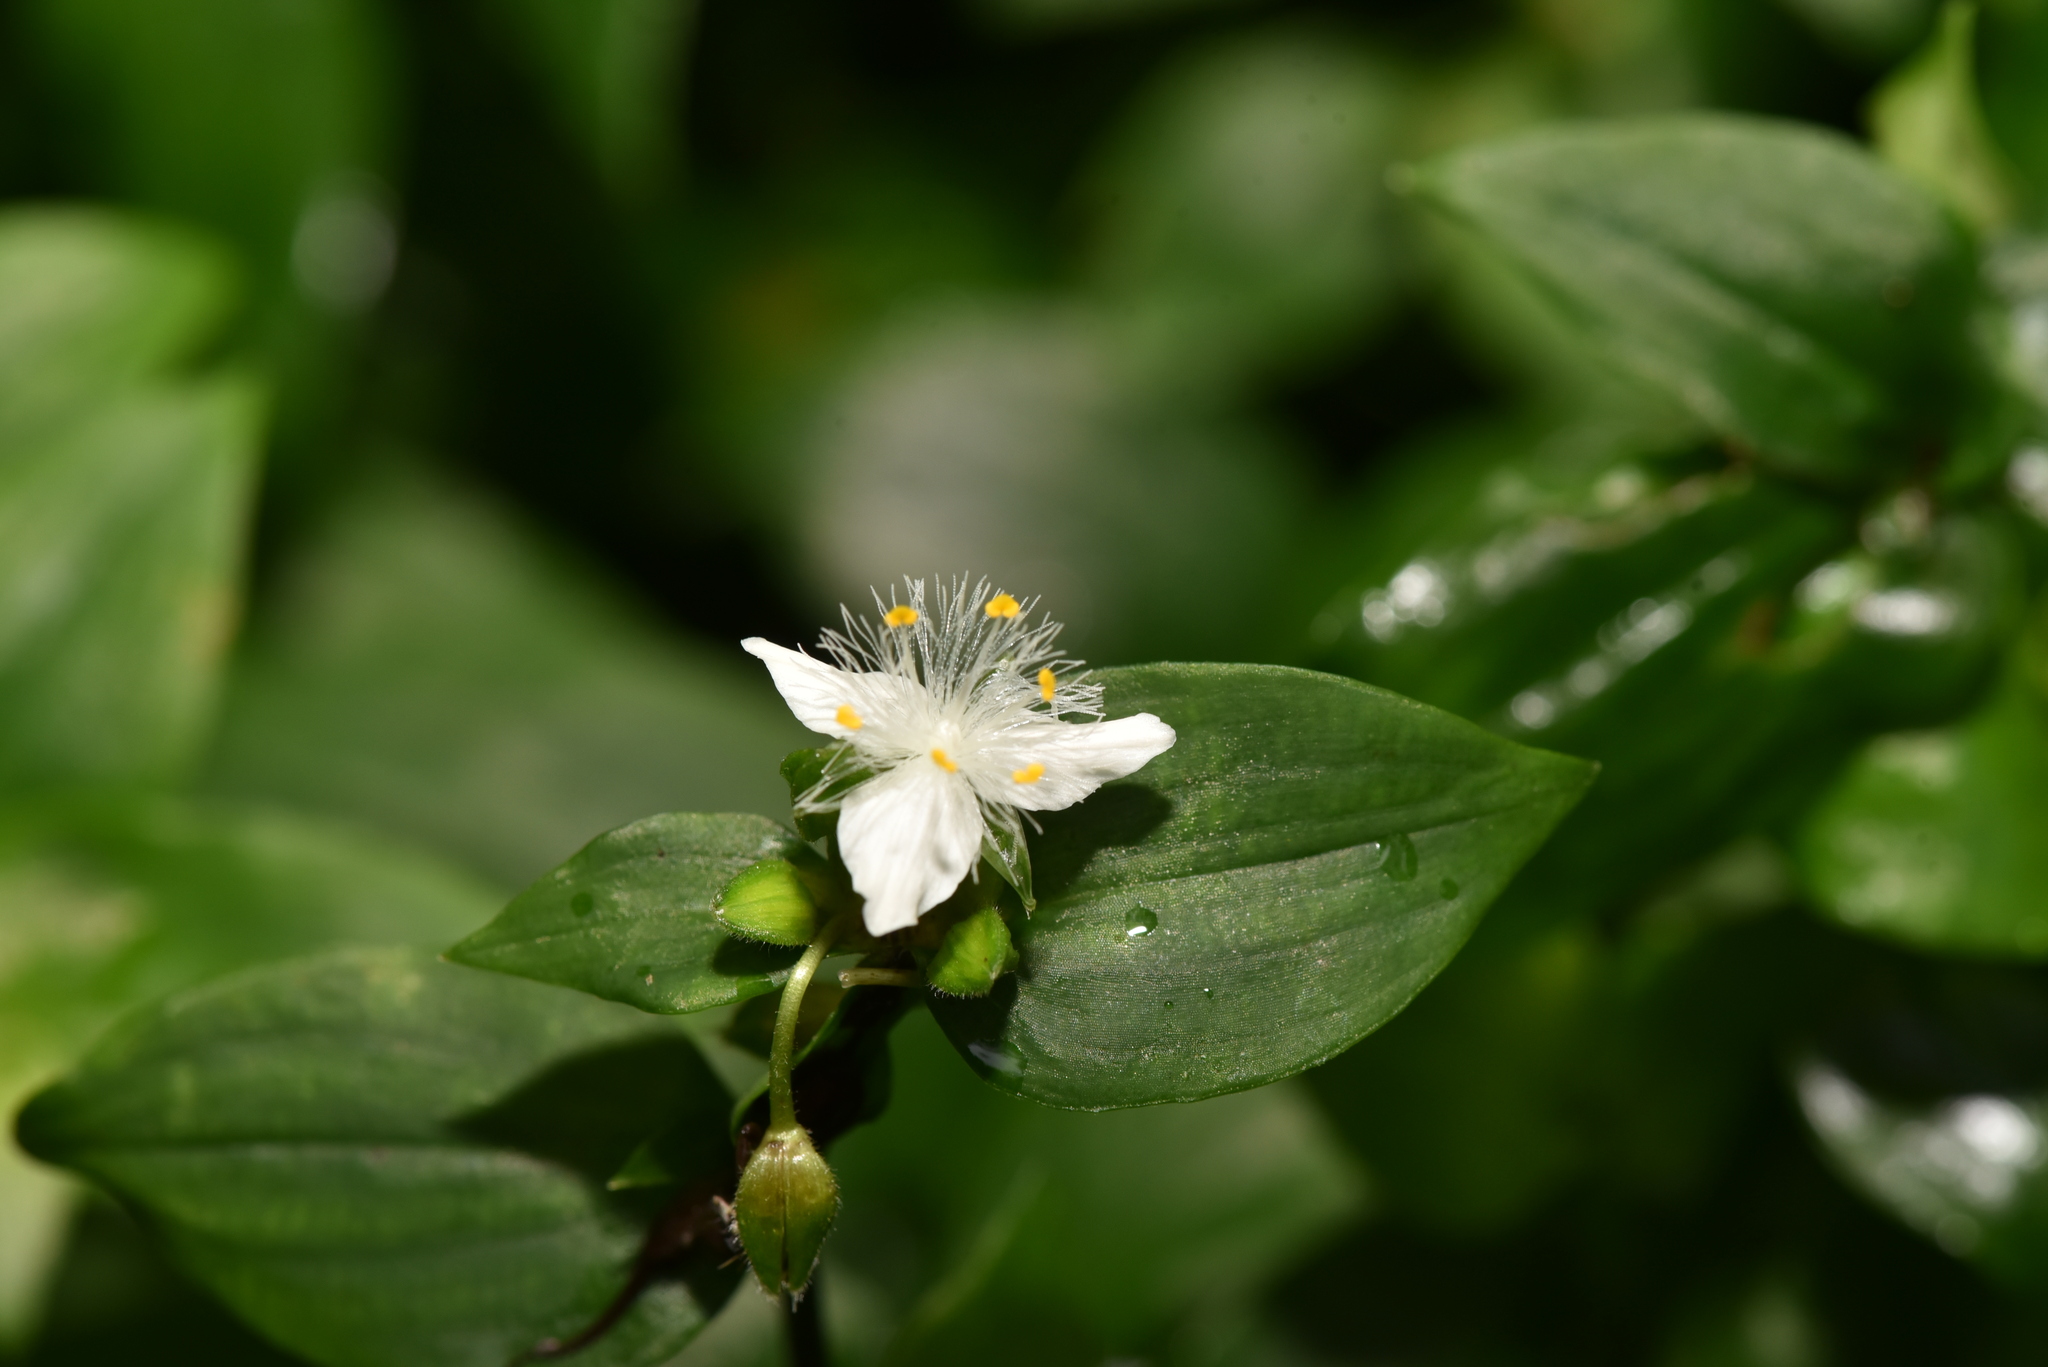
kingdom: Plantae
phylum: Tracheophyta
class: Liliopsida
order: Commelinales
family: Commelinaceae
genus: Tradescantia
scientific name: Tradescantia fluminensis
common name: Wandering-jew
